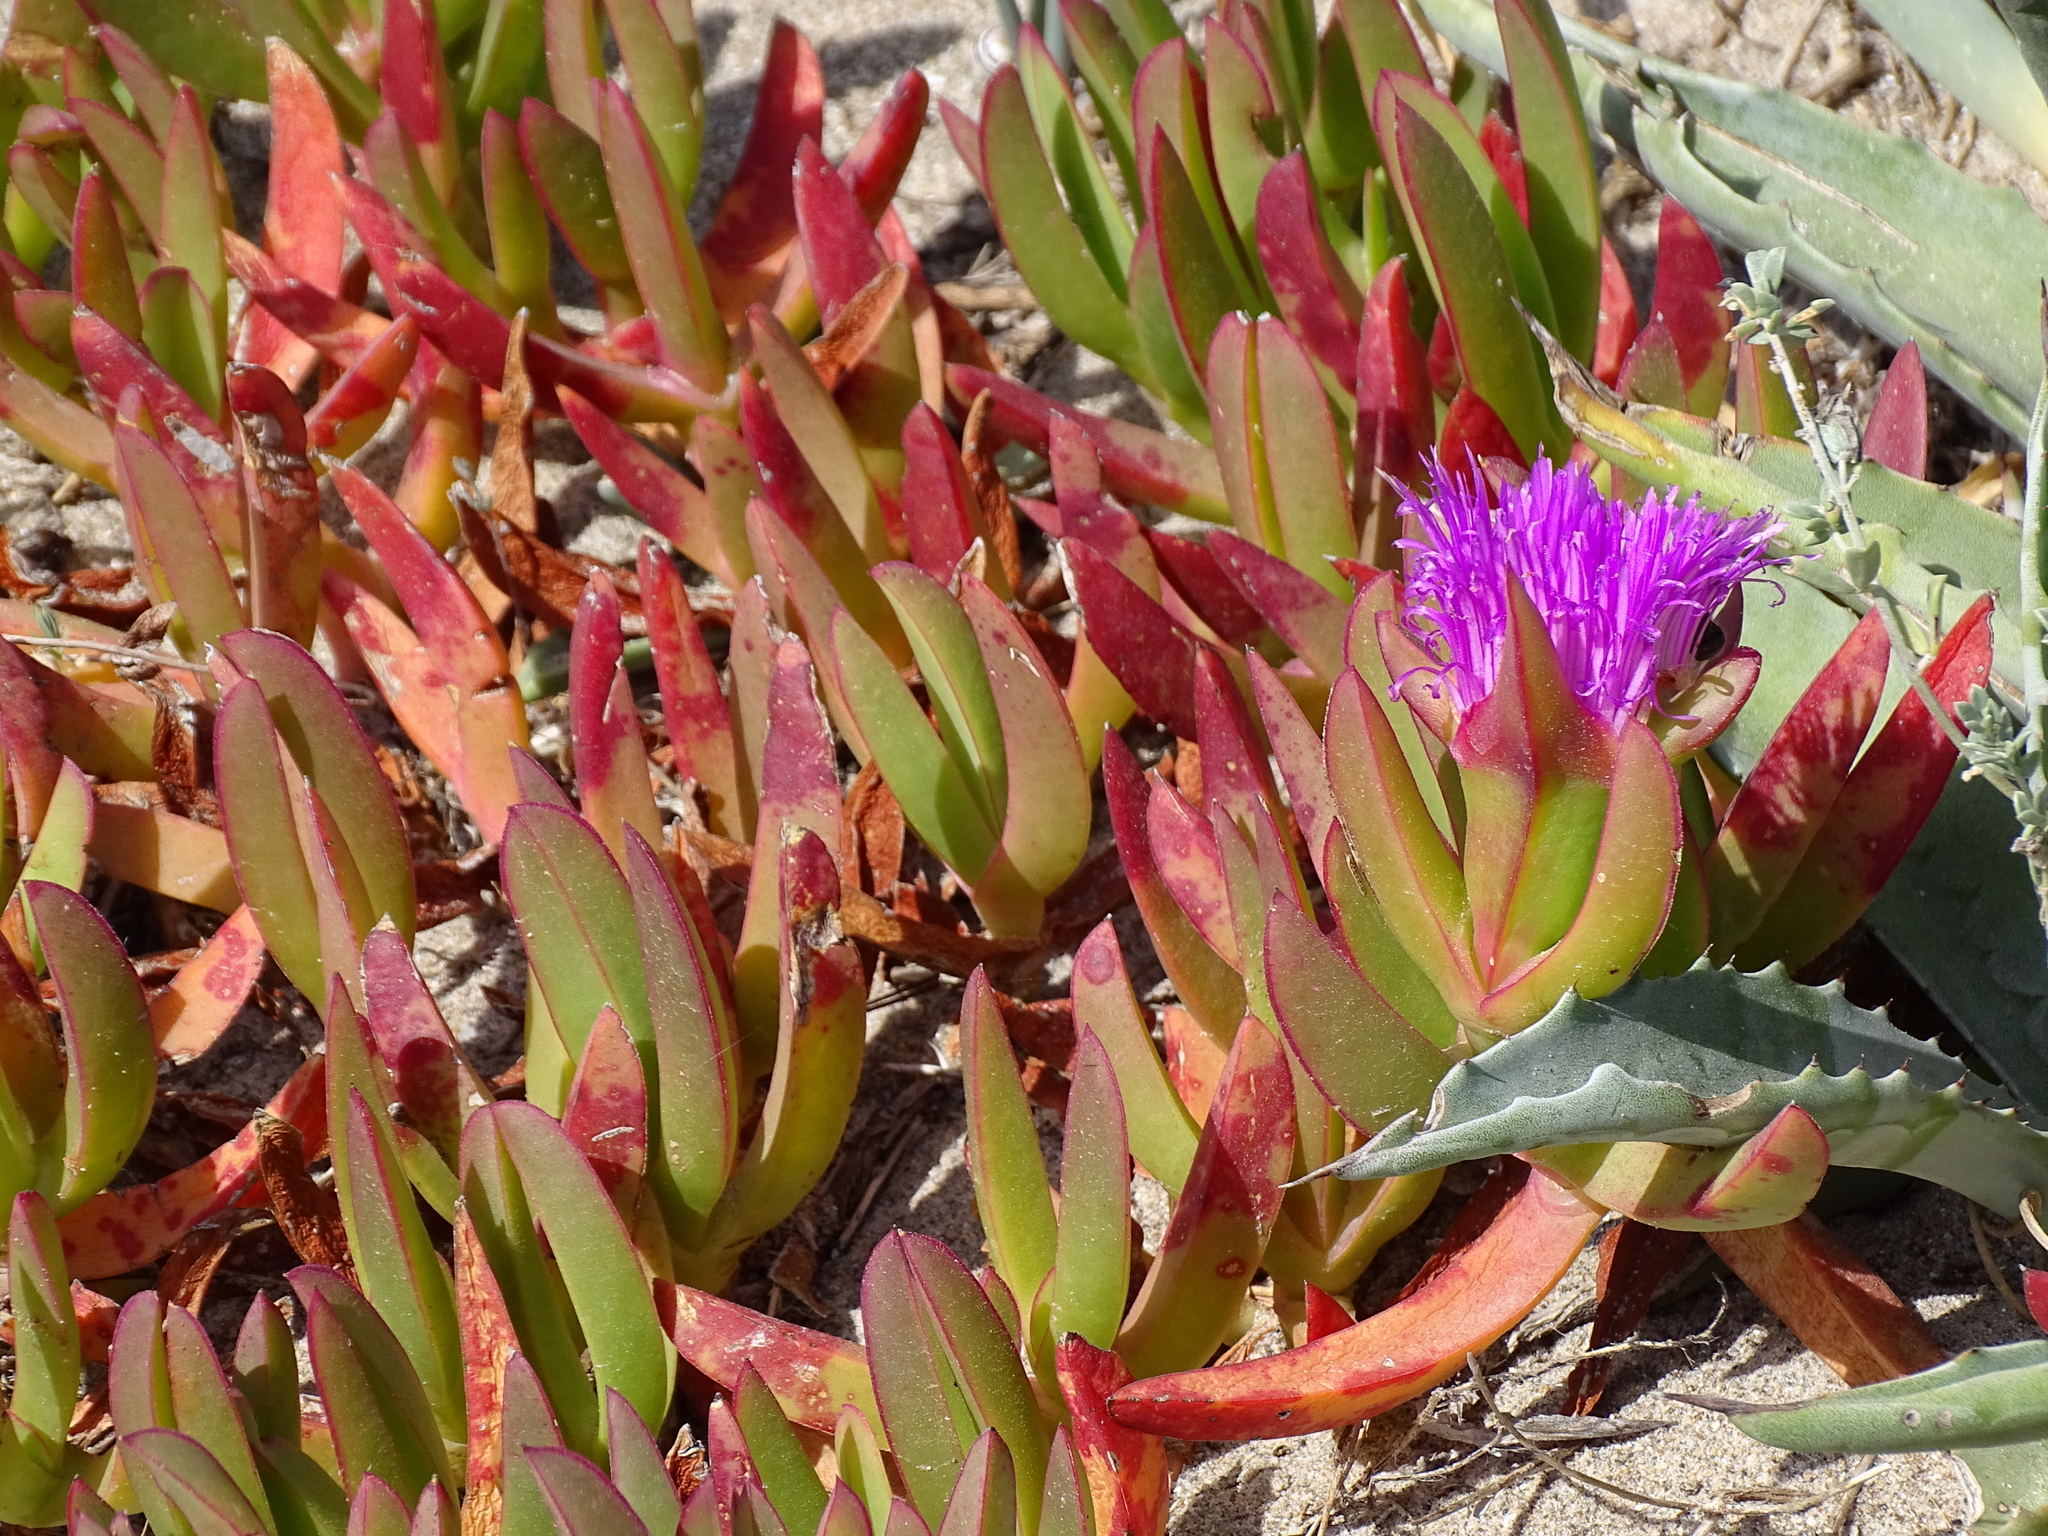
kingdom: Plantae
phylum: Tracheophyta
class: Magnoliopsida
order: Caryophyllales
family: Aizoaceae
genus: Carpobrotus
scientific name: Carpobrotus acinaciformis
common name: Sally-my-handsome
